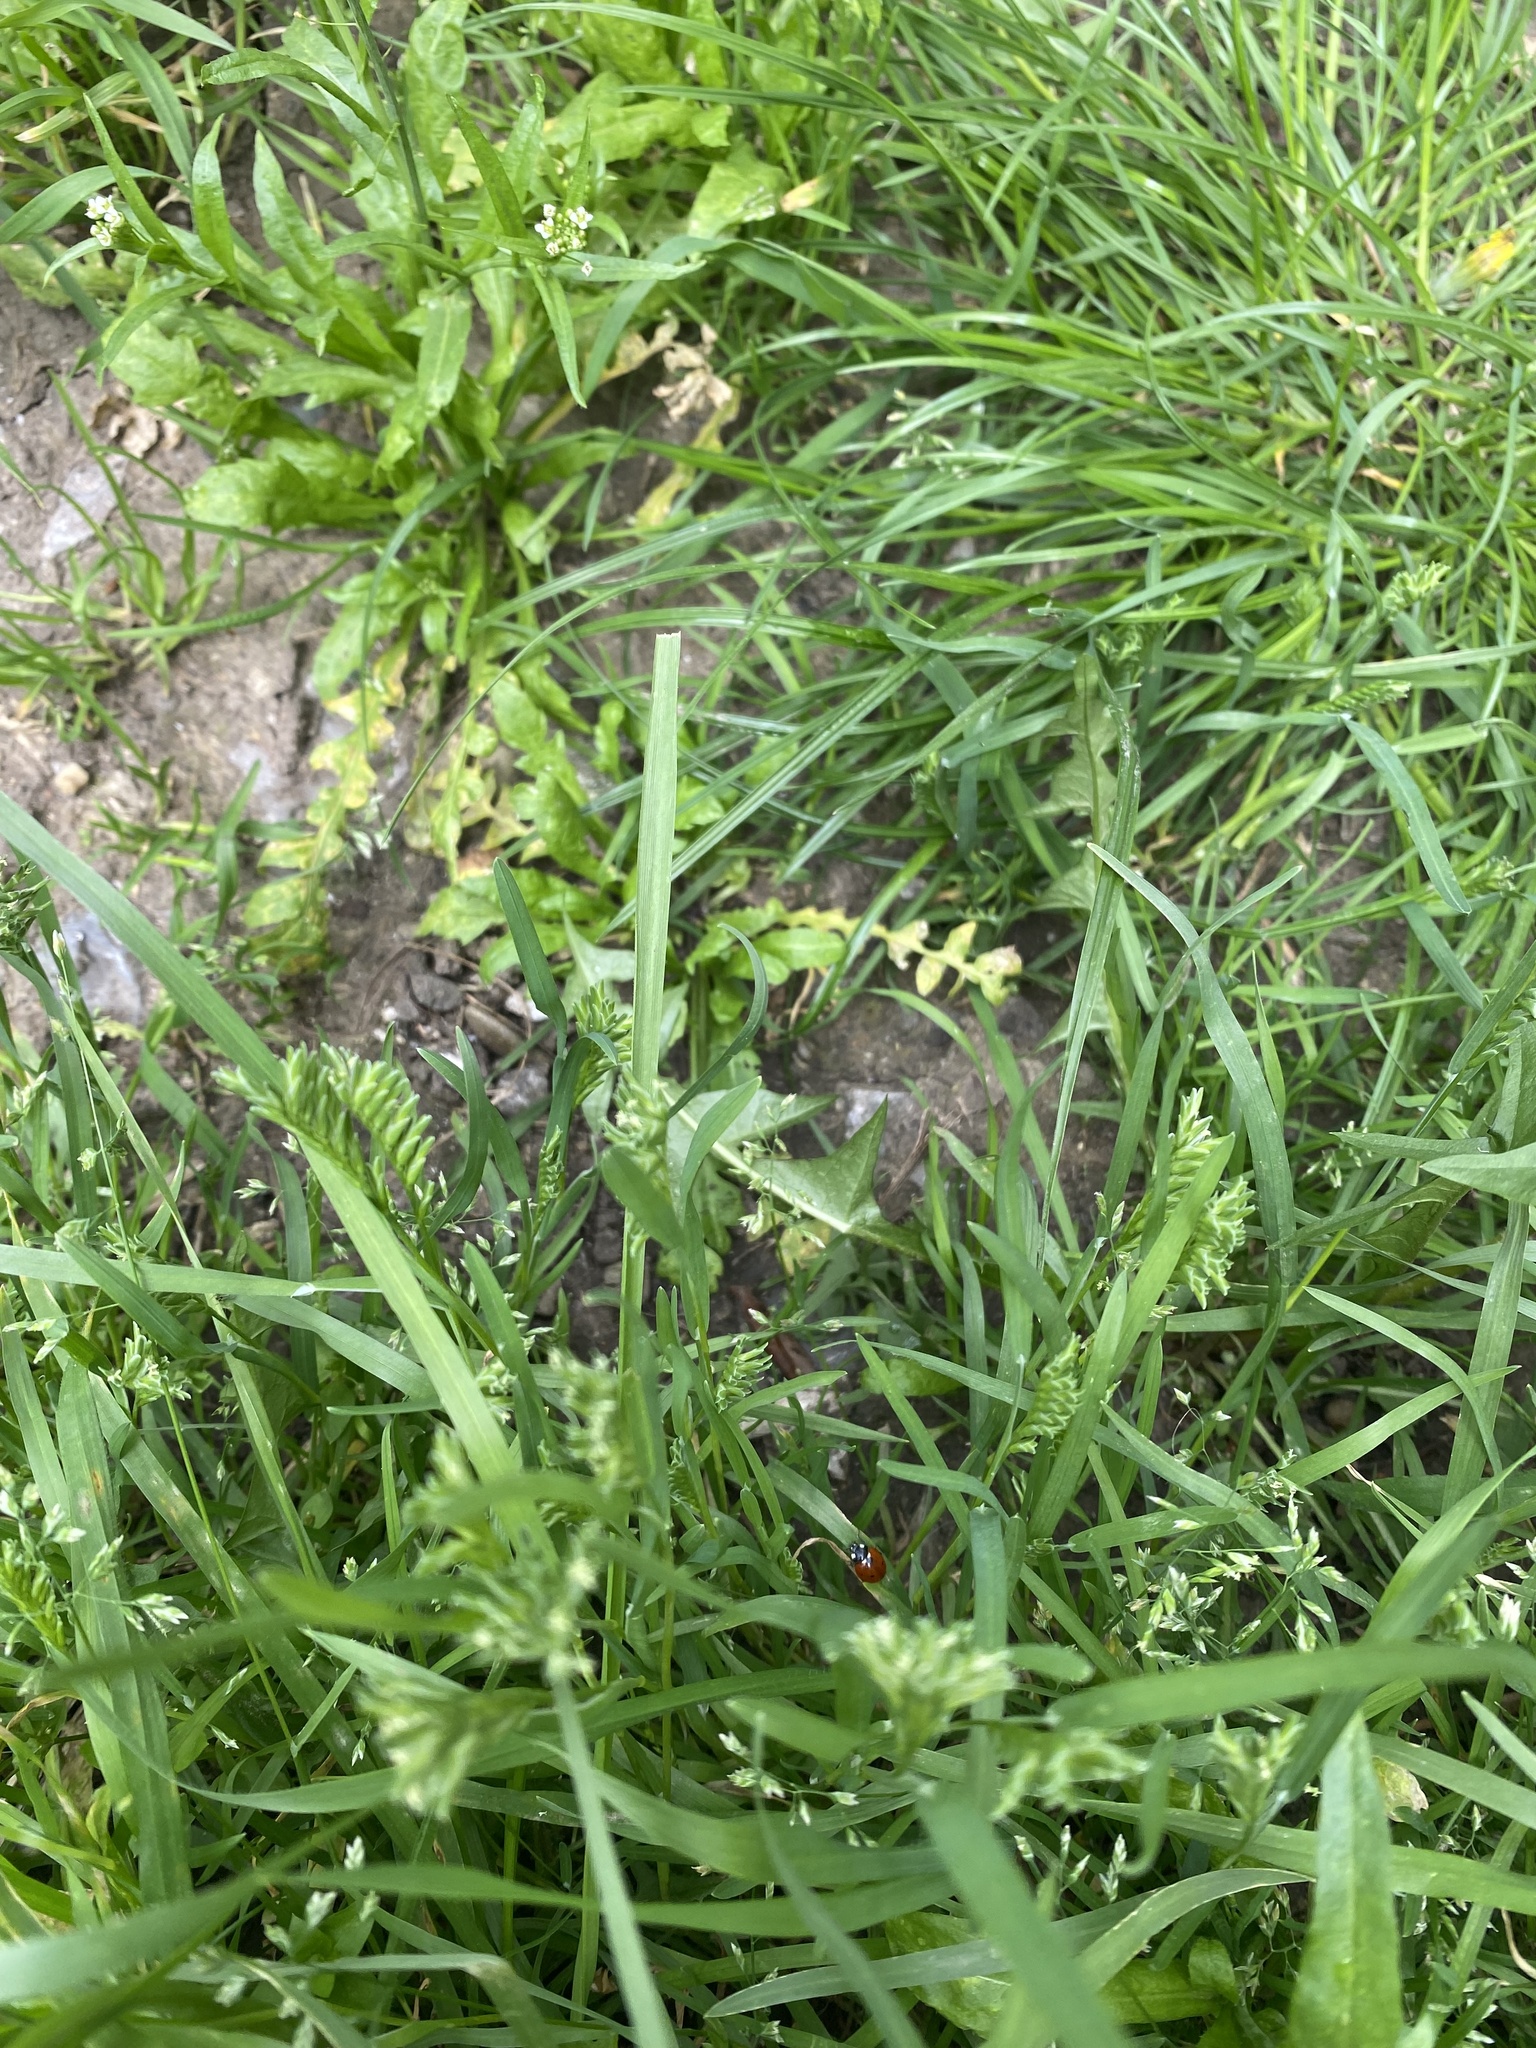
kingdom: Plantae
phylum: Tracheophyta
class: Liliopsida
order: Poales
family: Poaceae
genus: Sclerochloa
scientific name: Sclerochloa dura
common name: Common hardgrass
